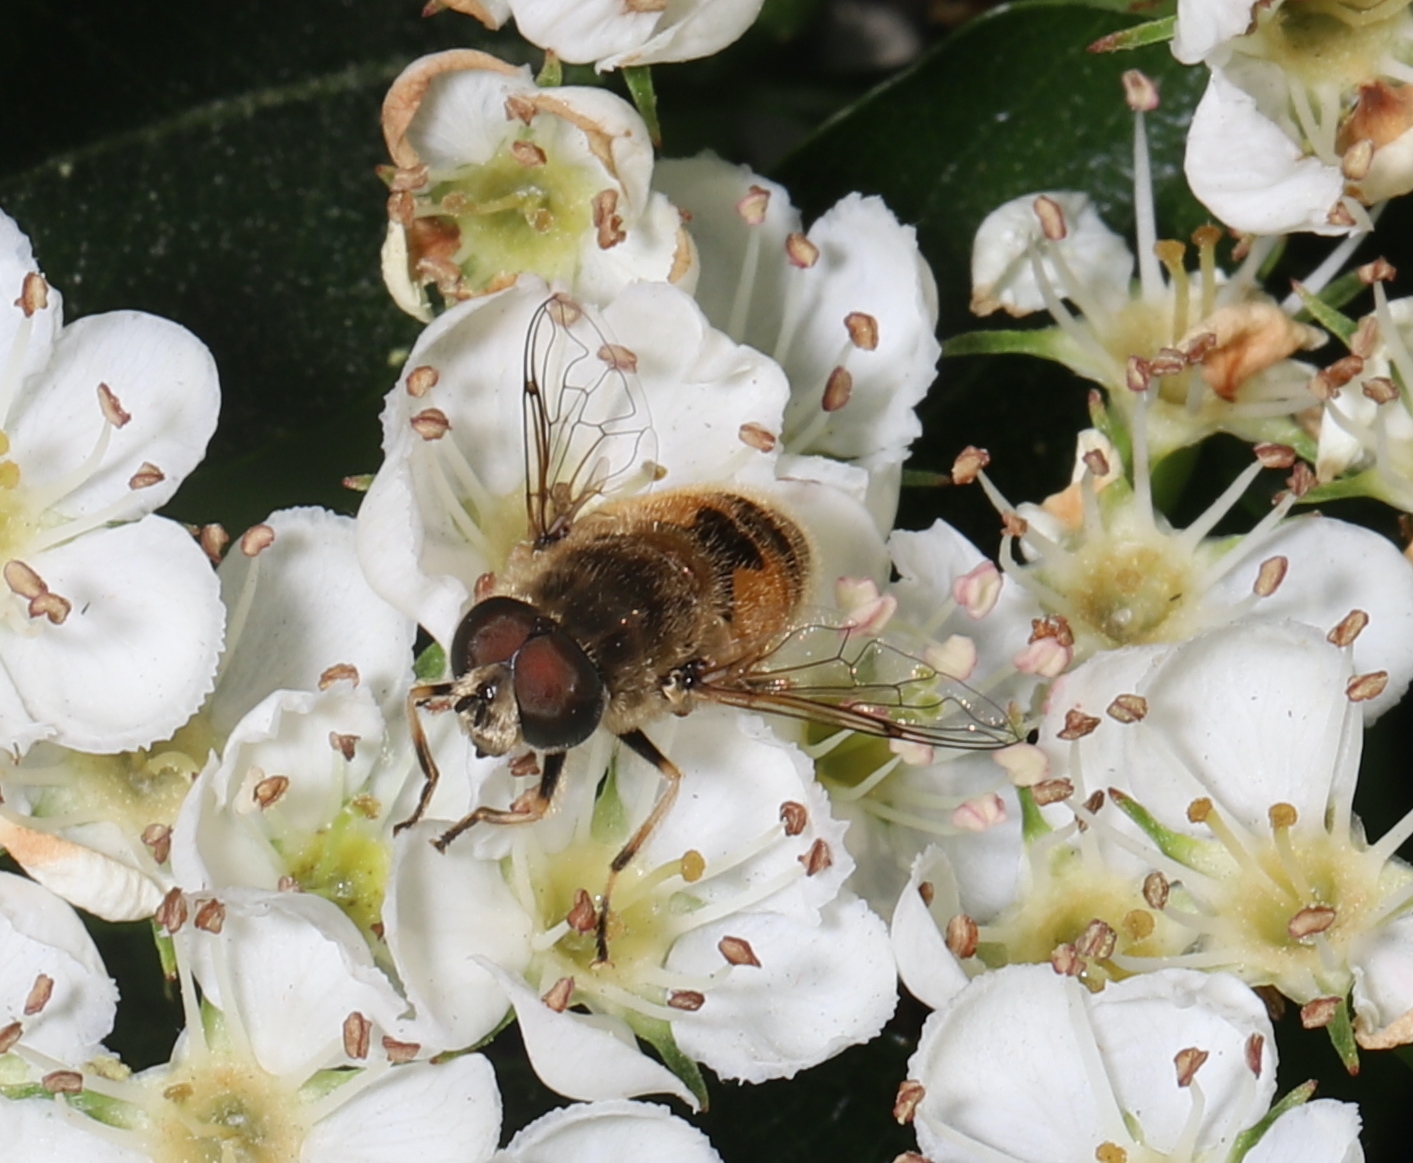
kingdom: Animalia
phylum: Arthropoda
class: Insecta
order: Diptera
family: Syrphidae
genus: Eristalis
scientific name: Eristalis arbustorum
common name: Hover fly
